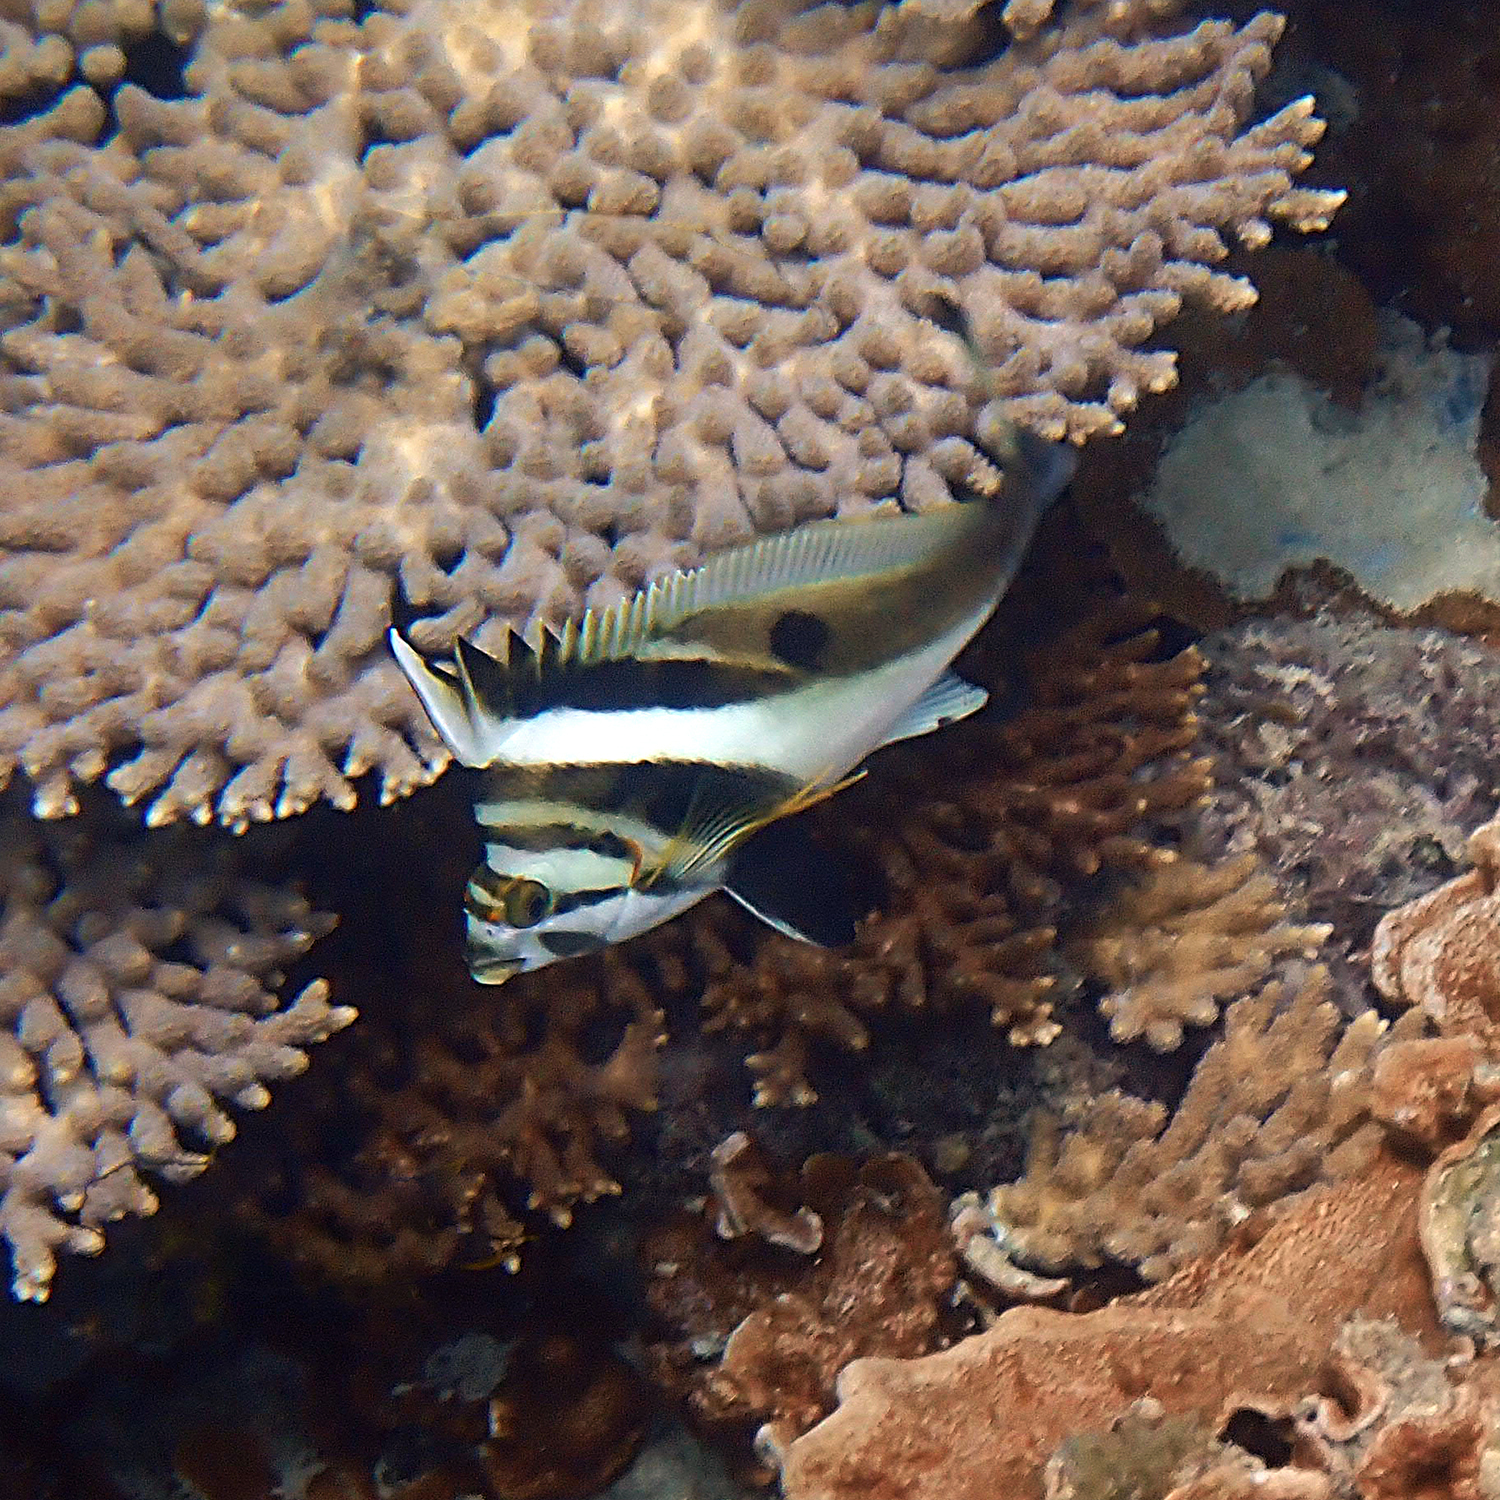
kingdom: Animalia
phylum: Chordata
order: Perciformes
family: Cheilodactylidae
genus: Cheilodactylus
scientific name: Cheilodactylus francisi
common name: Blacktip morwong
